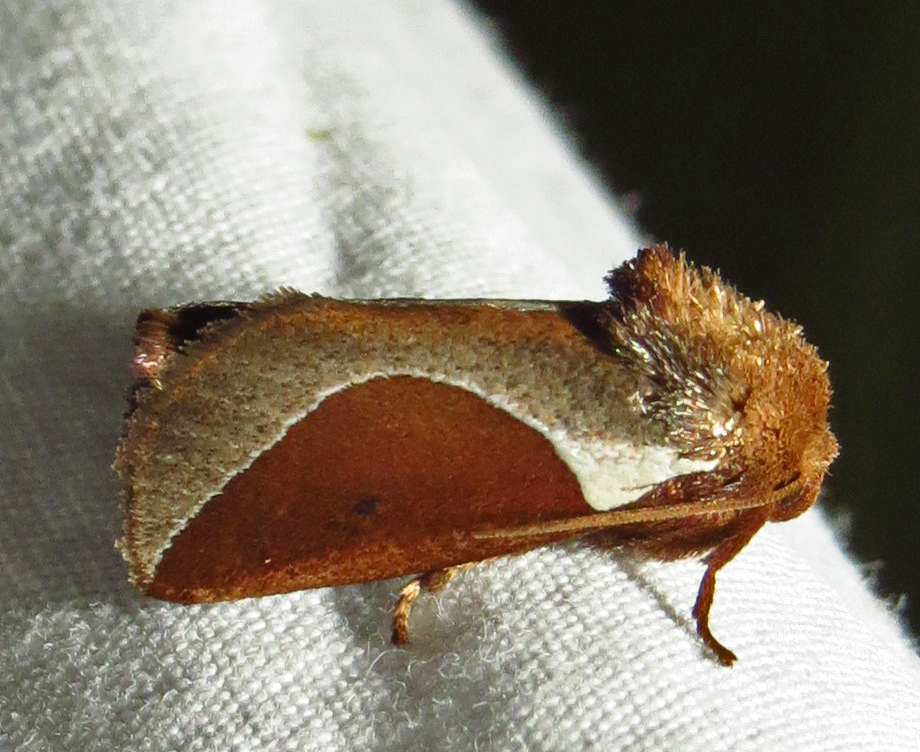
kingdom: Animalia
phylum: Arthropoda
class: Insecta
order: Lepidoptera
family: Limacodidae
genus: Prolimacodes
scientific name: Prolimacodes badia
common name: Skiff moth
